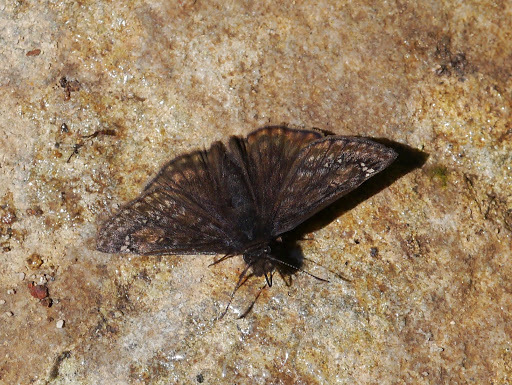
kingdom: Animalia
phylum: Arthropoda
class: Insecta
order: Lepidoptera
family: Hesperiidae
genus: Erynnis
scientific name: Erynnis juvenalis
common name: Juvenal's duskywing
